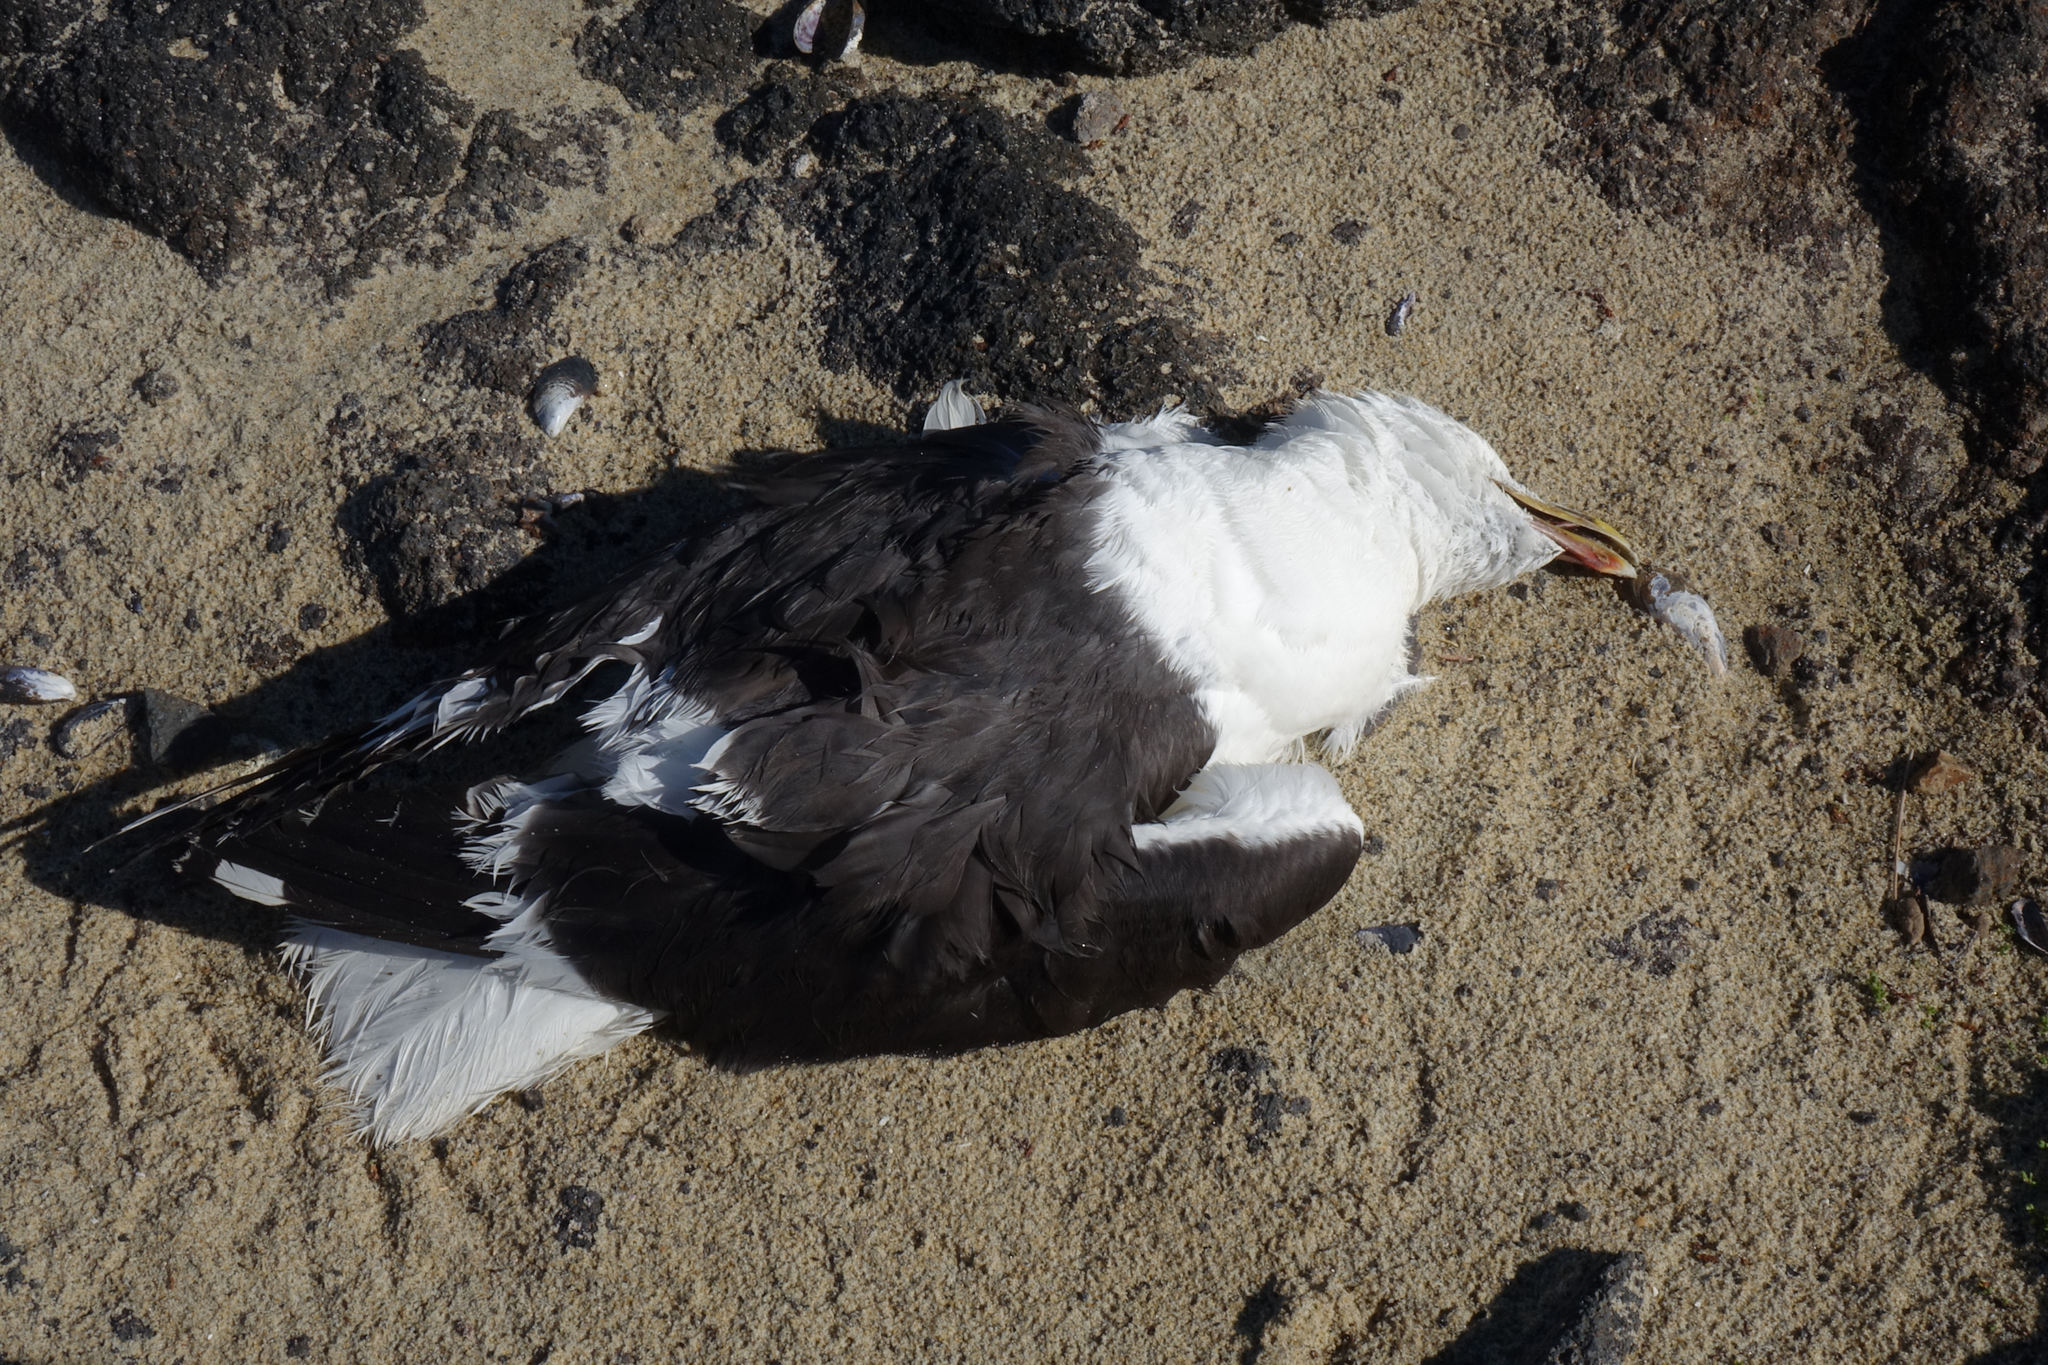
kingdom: Animalia
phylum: Chordata
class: Aves
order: Charadriiformes
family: Laridae
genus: Larus
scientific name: Larus dominicanus
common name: Kelp gull
